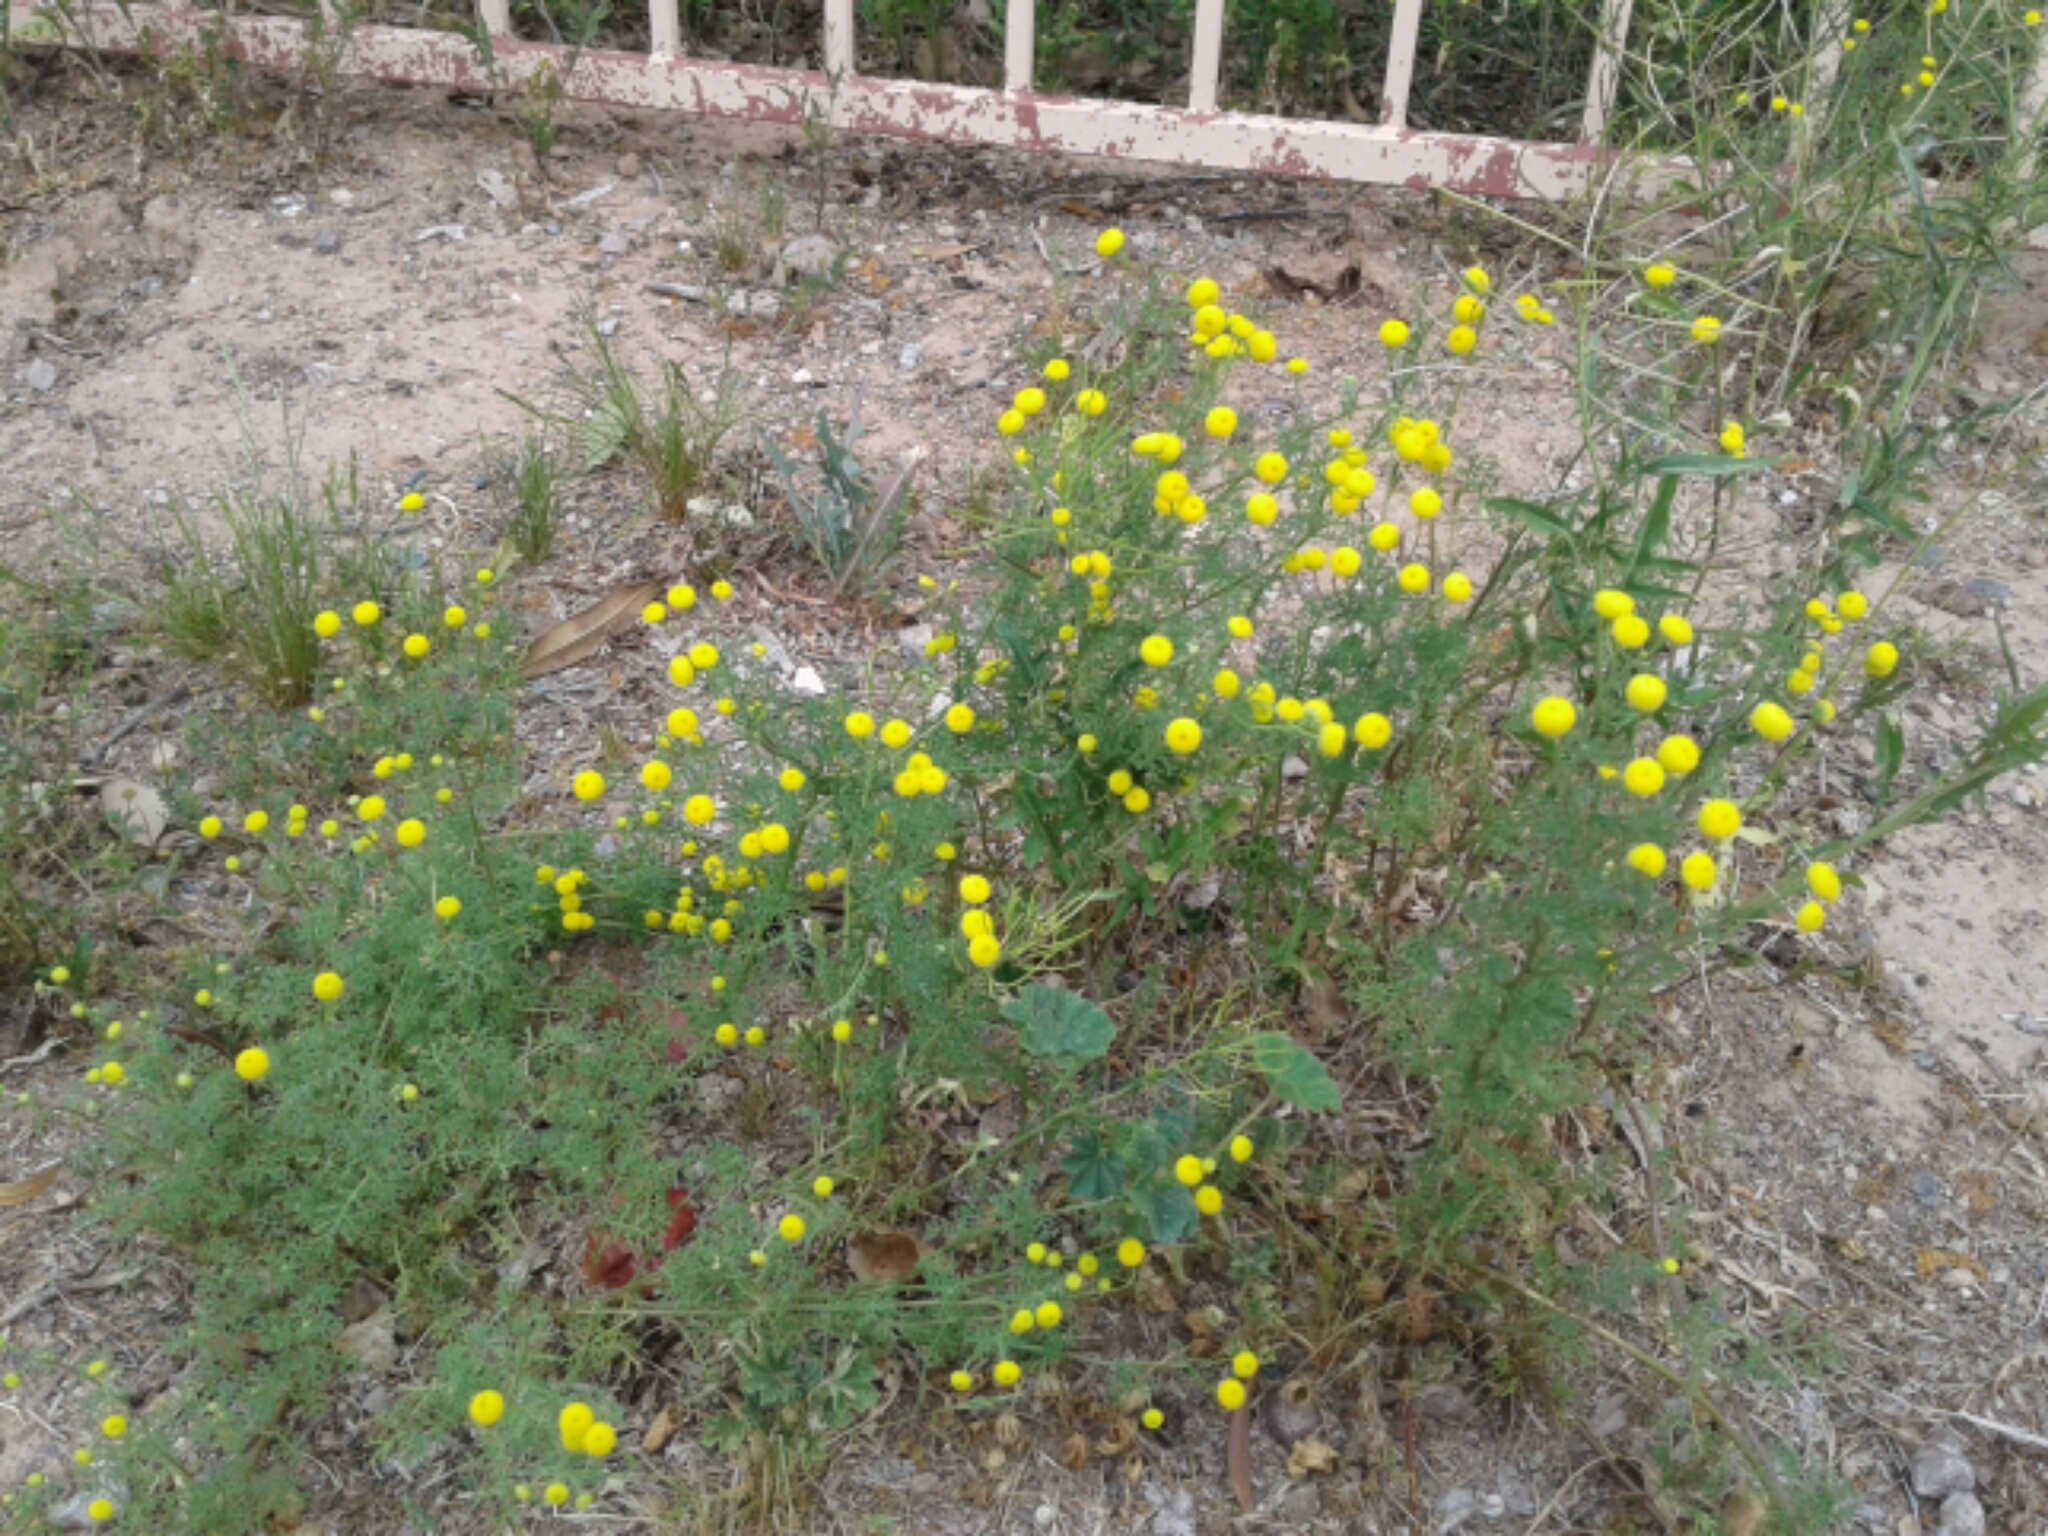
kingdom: Plantae
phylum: Tracheophyta
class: Magnoliopsida
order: Asterales
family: Asteraceae
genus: Oncosiphon
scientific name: Oncosiphon pilulifer
